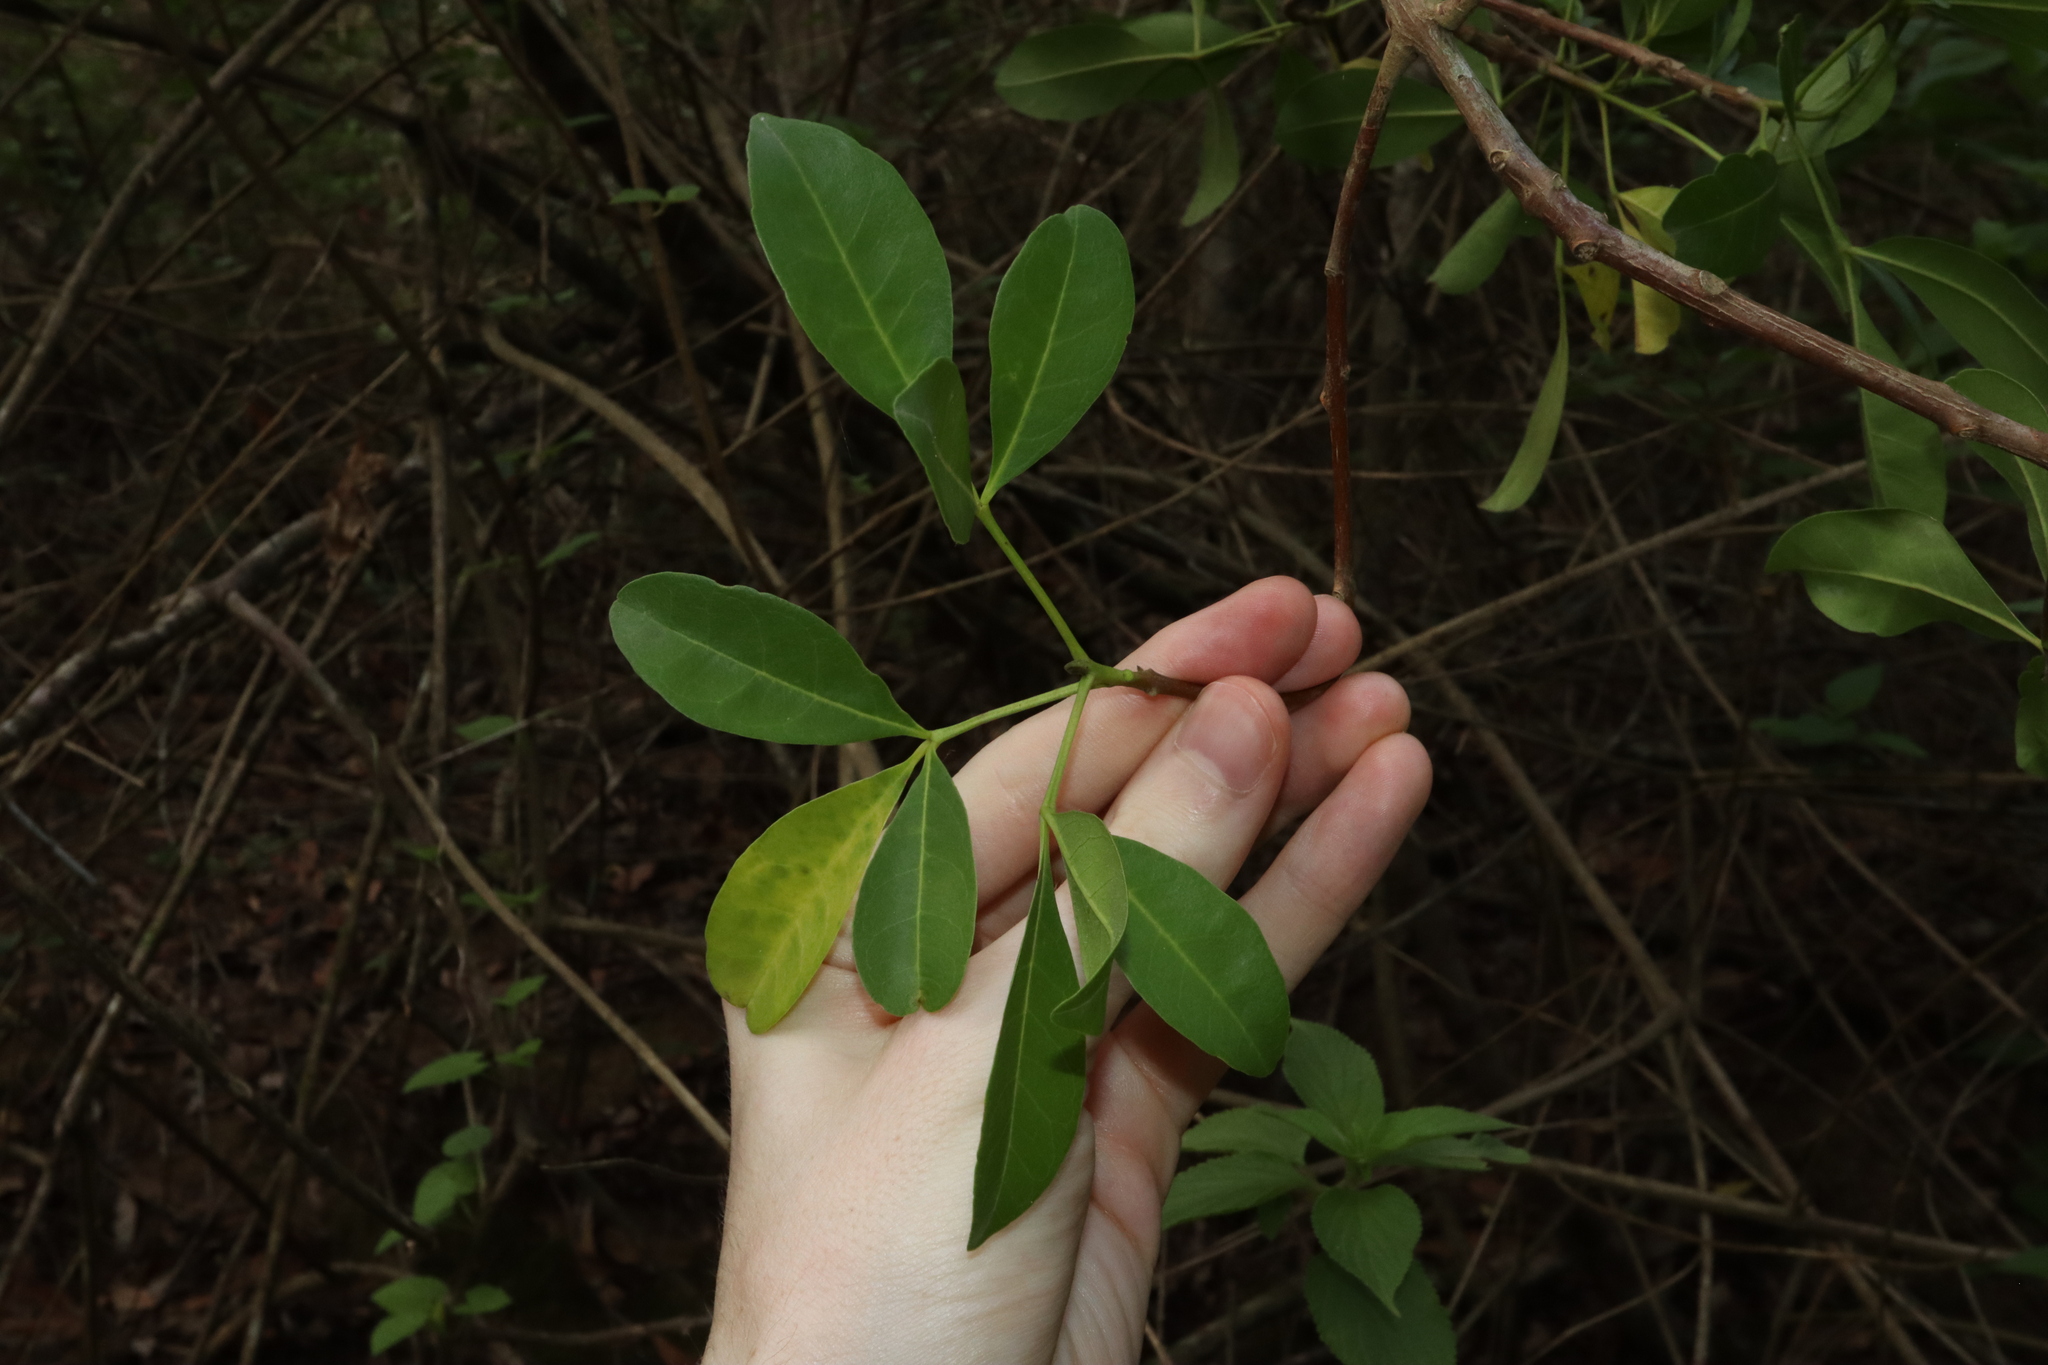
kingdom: Plantae
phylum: Tracheophyta
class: Magnoliopsida
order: Sapindales
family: Rutaceae
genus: Melicope
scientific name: Melicope micrococca
